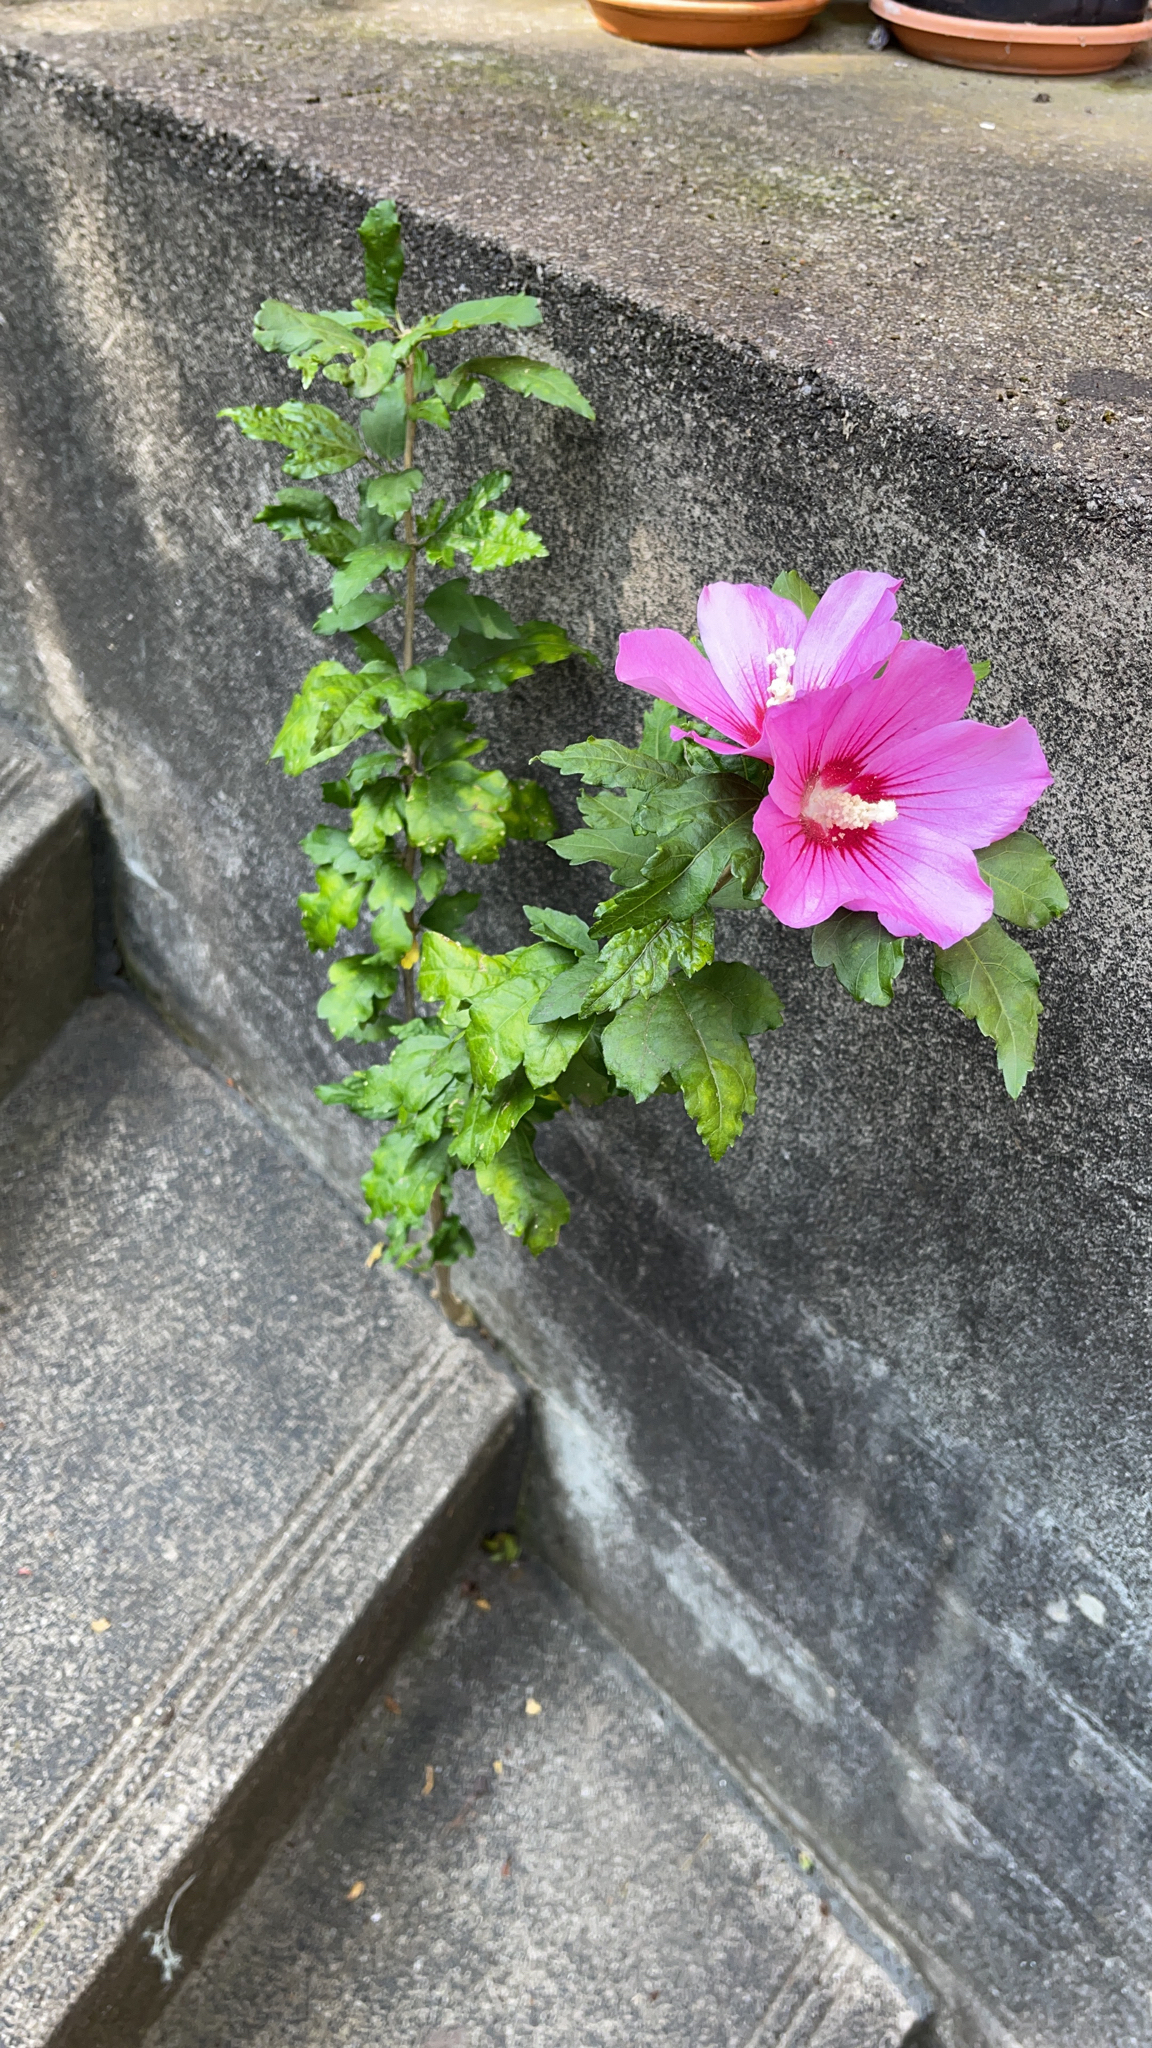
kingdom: Plantae
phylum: Tracheophyta
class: Magnoliopsida
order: Malvales
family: Malvaceae
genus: Hibiscus
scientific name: Hibiscus syriacus
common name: Syrian ketmia
